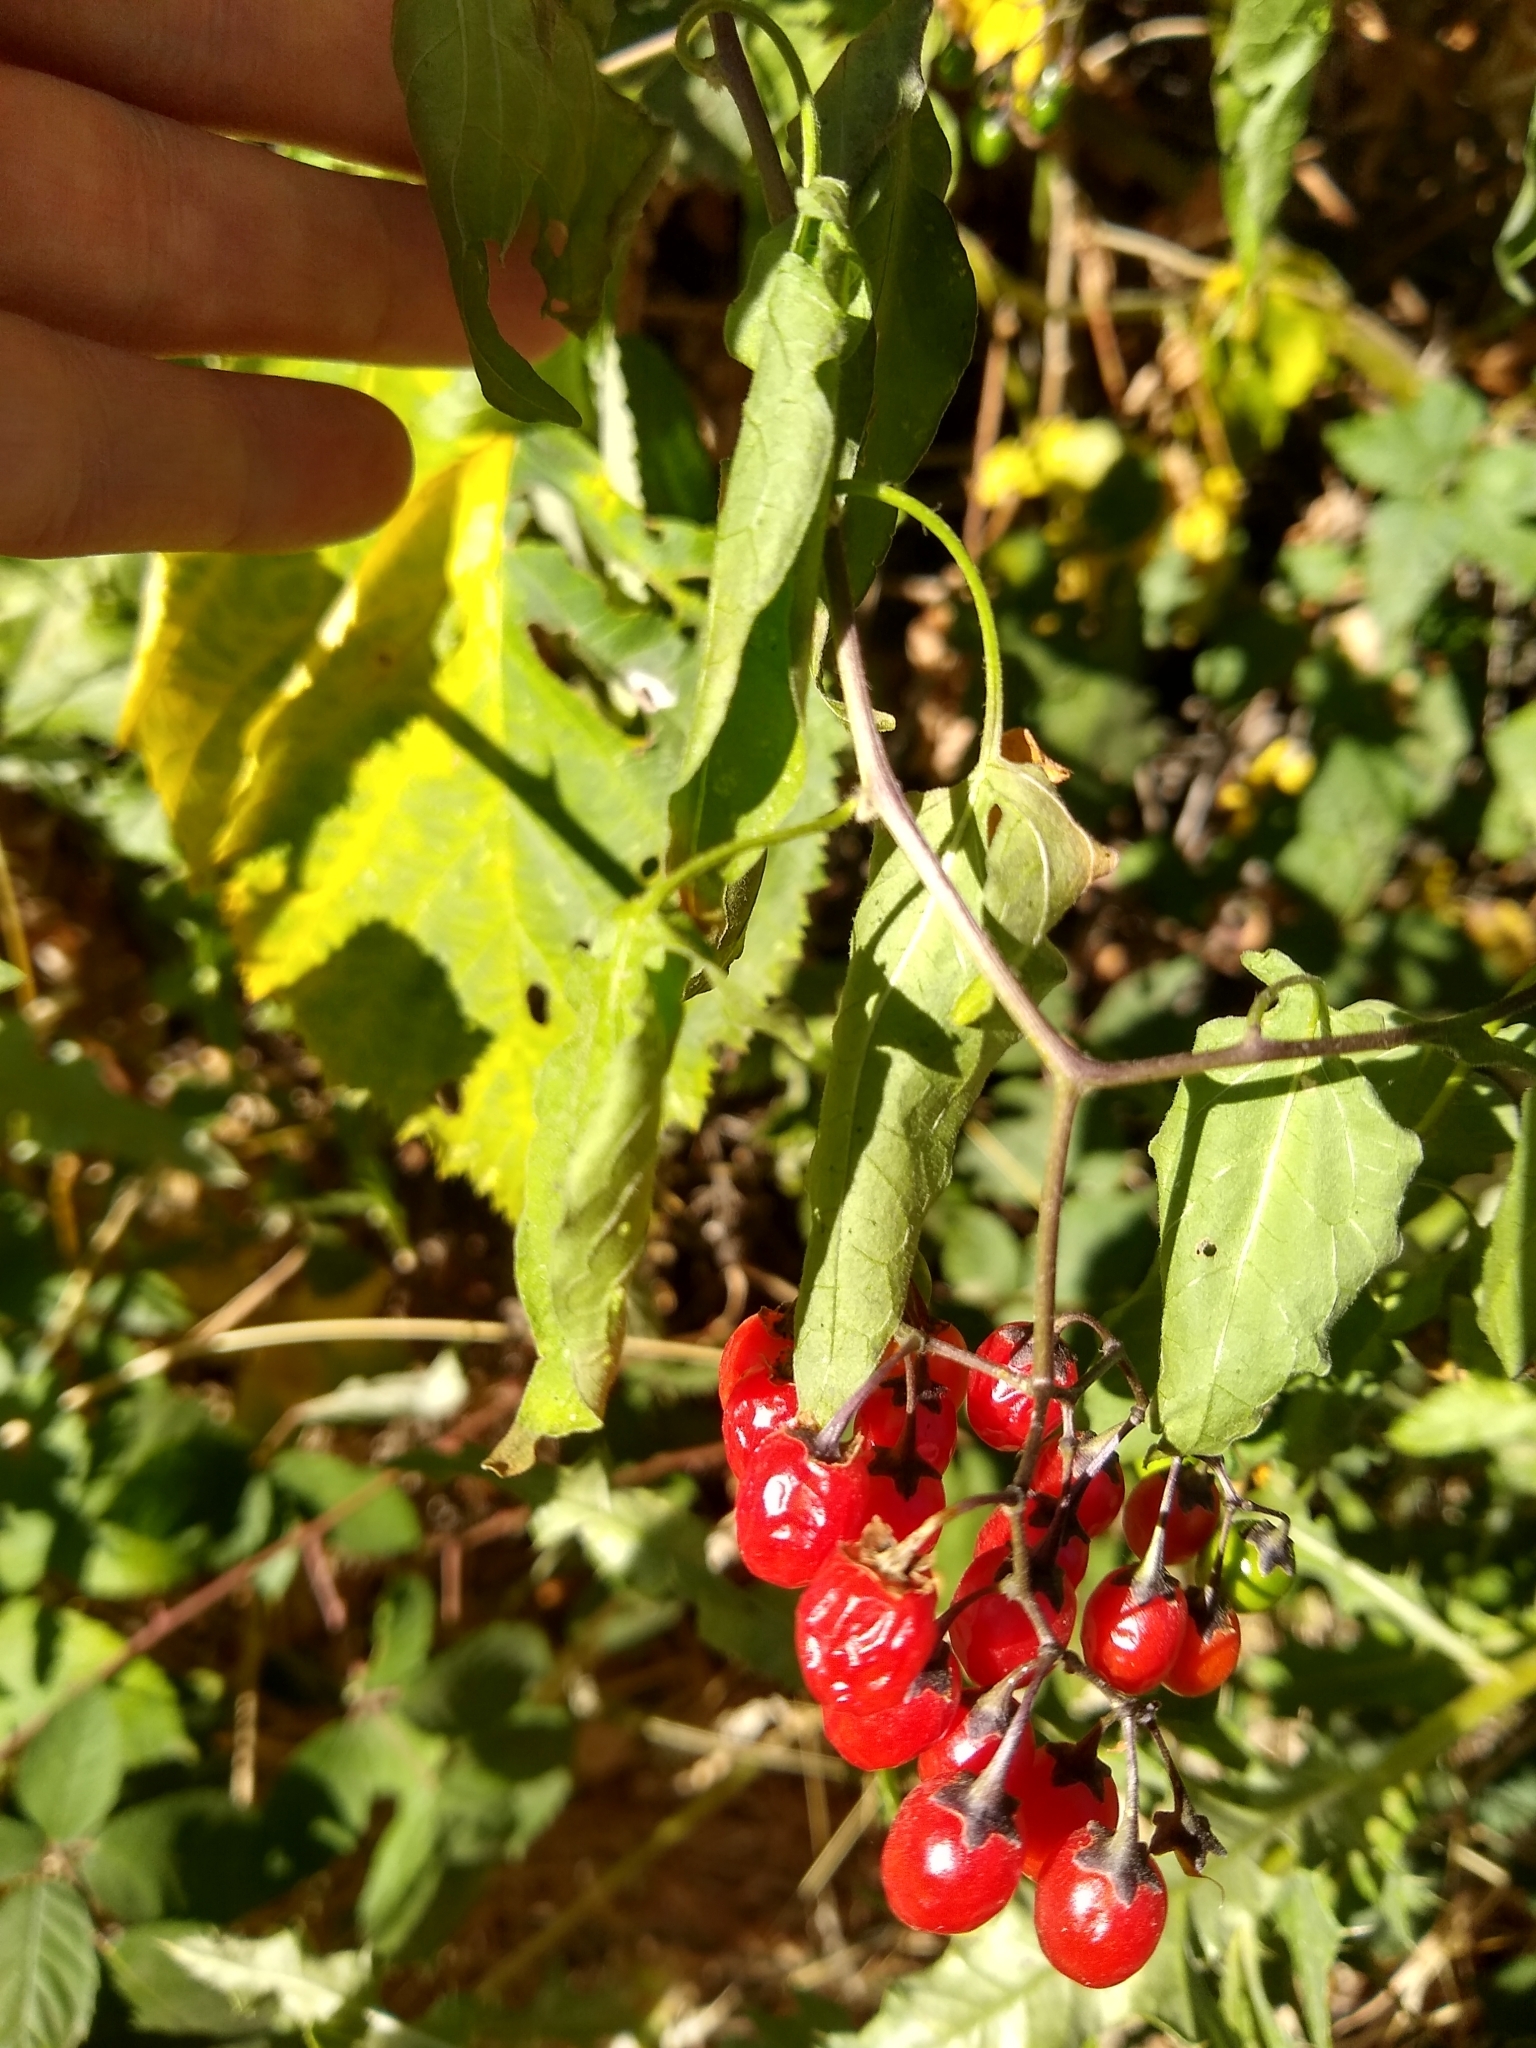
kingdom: Plantae
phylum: Tracheophyta
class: Magnoliopsida
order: Solanales
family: Solanaceae
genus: Solanum
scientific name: Solanum dulcamara
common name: Climbing nightshade
